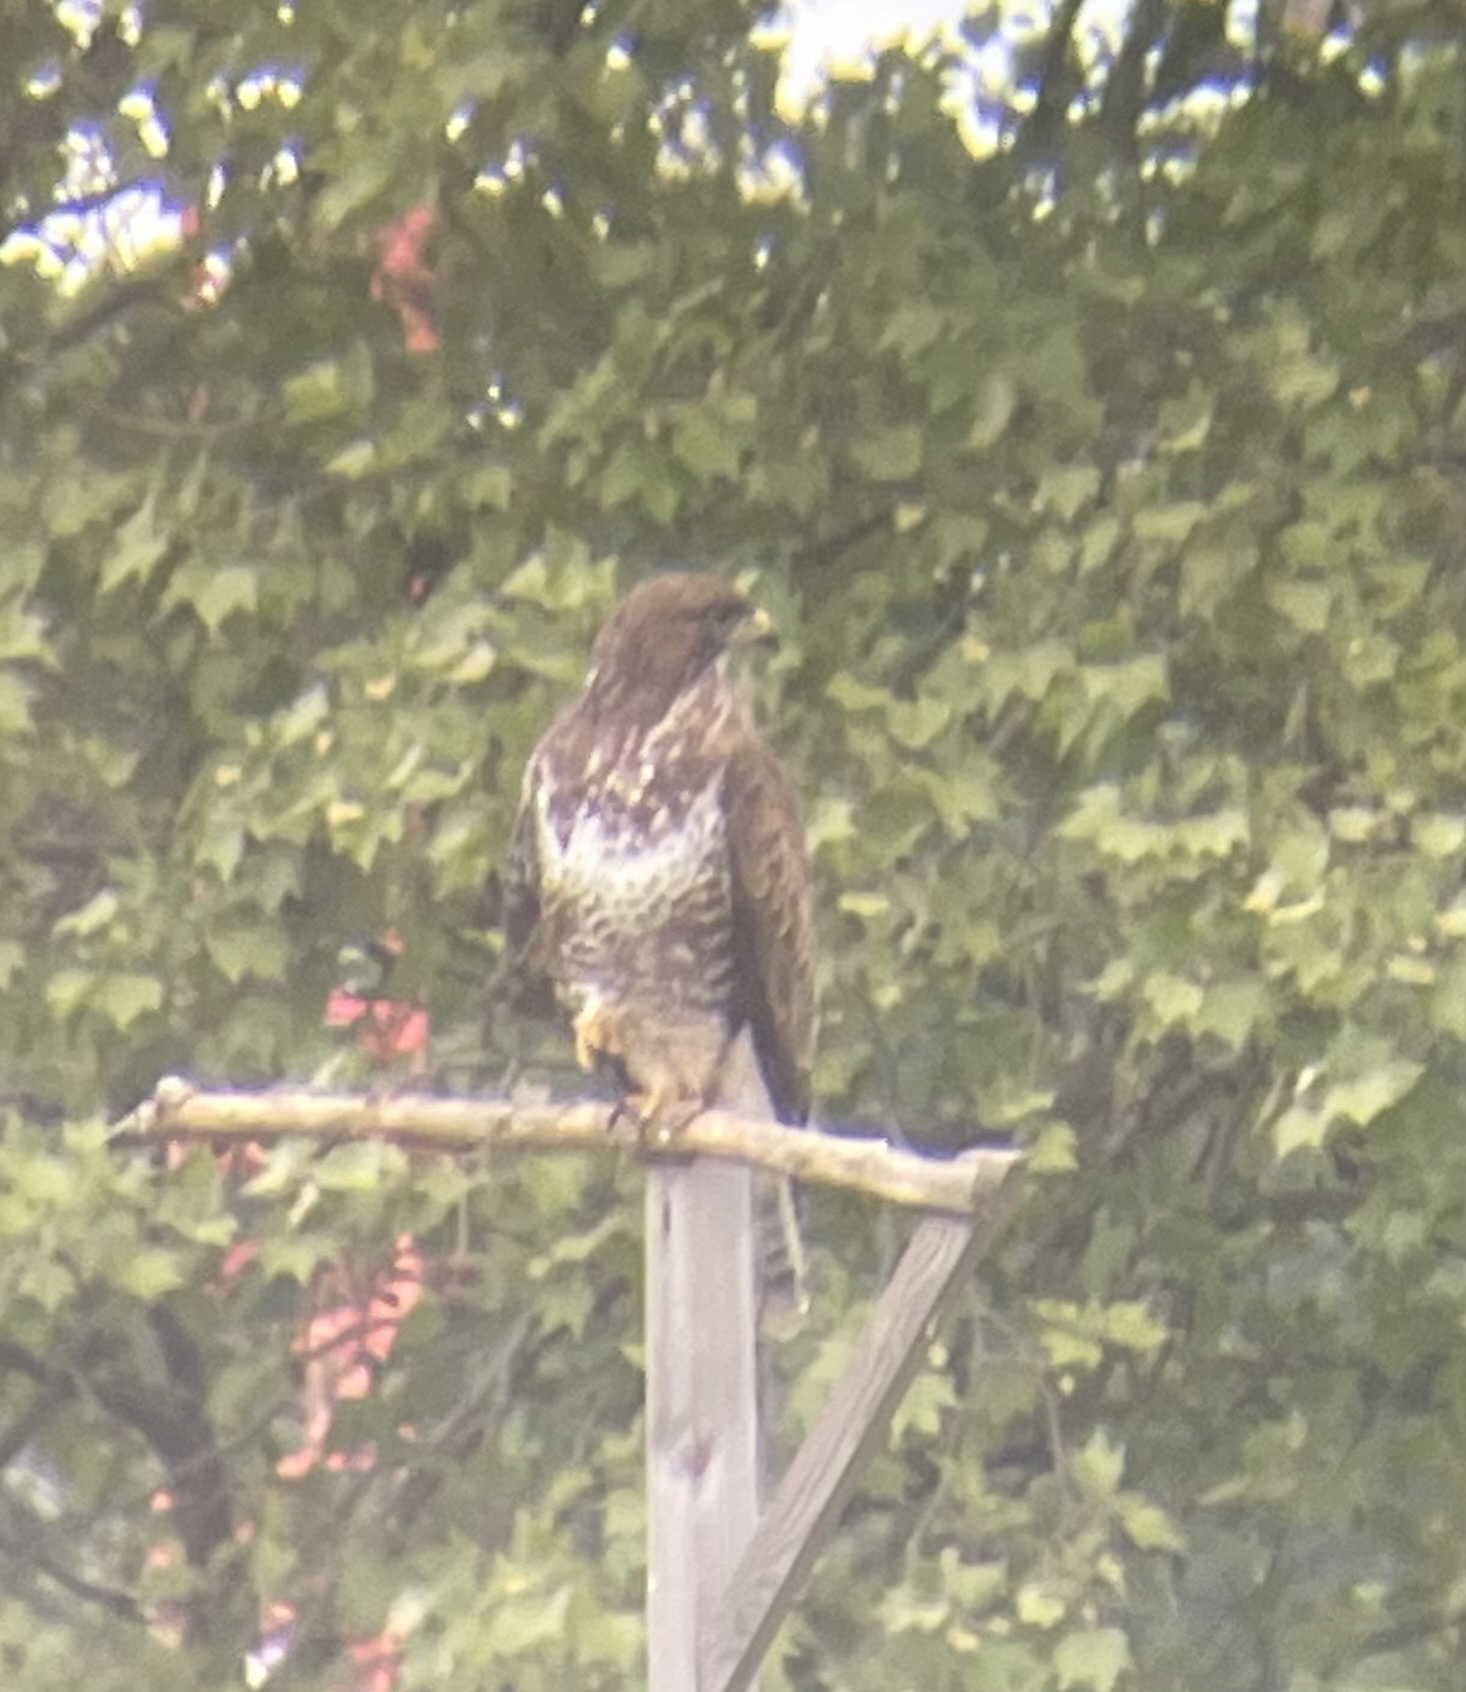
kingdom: Animalia
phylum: Chordata
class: Aves
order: Accipitriformes
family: Accipitridae
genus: Buteo
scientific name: Buteo buteo
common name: Common buzzard
